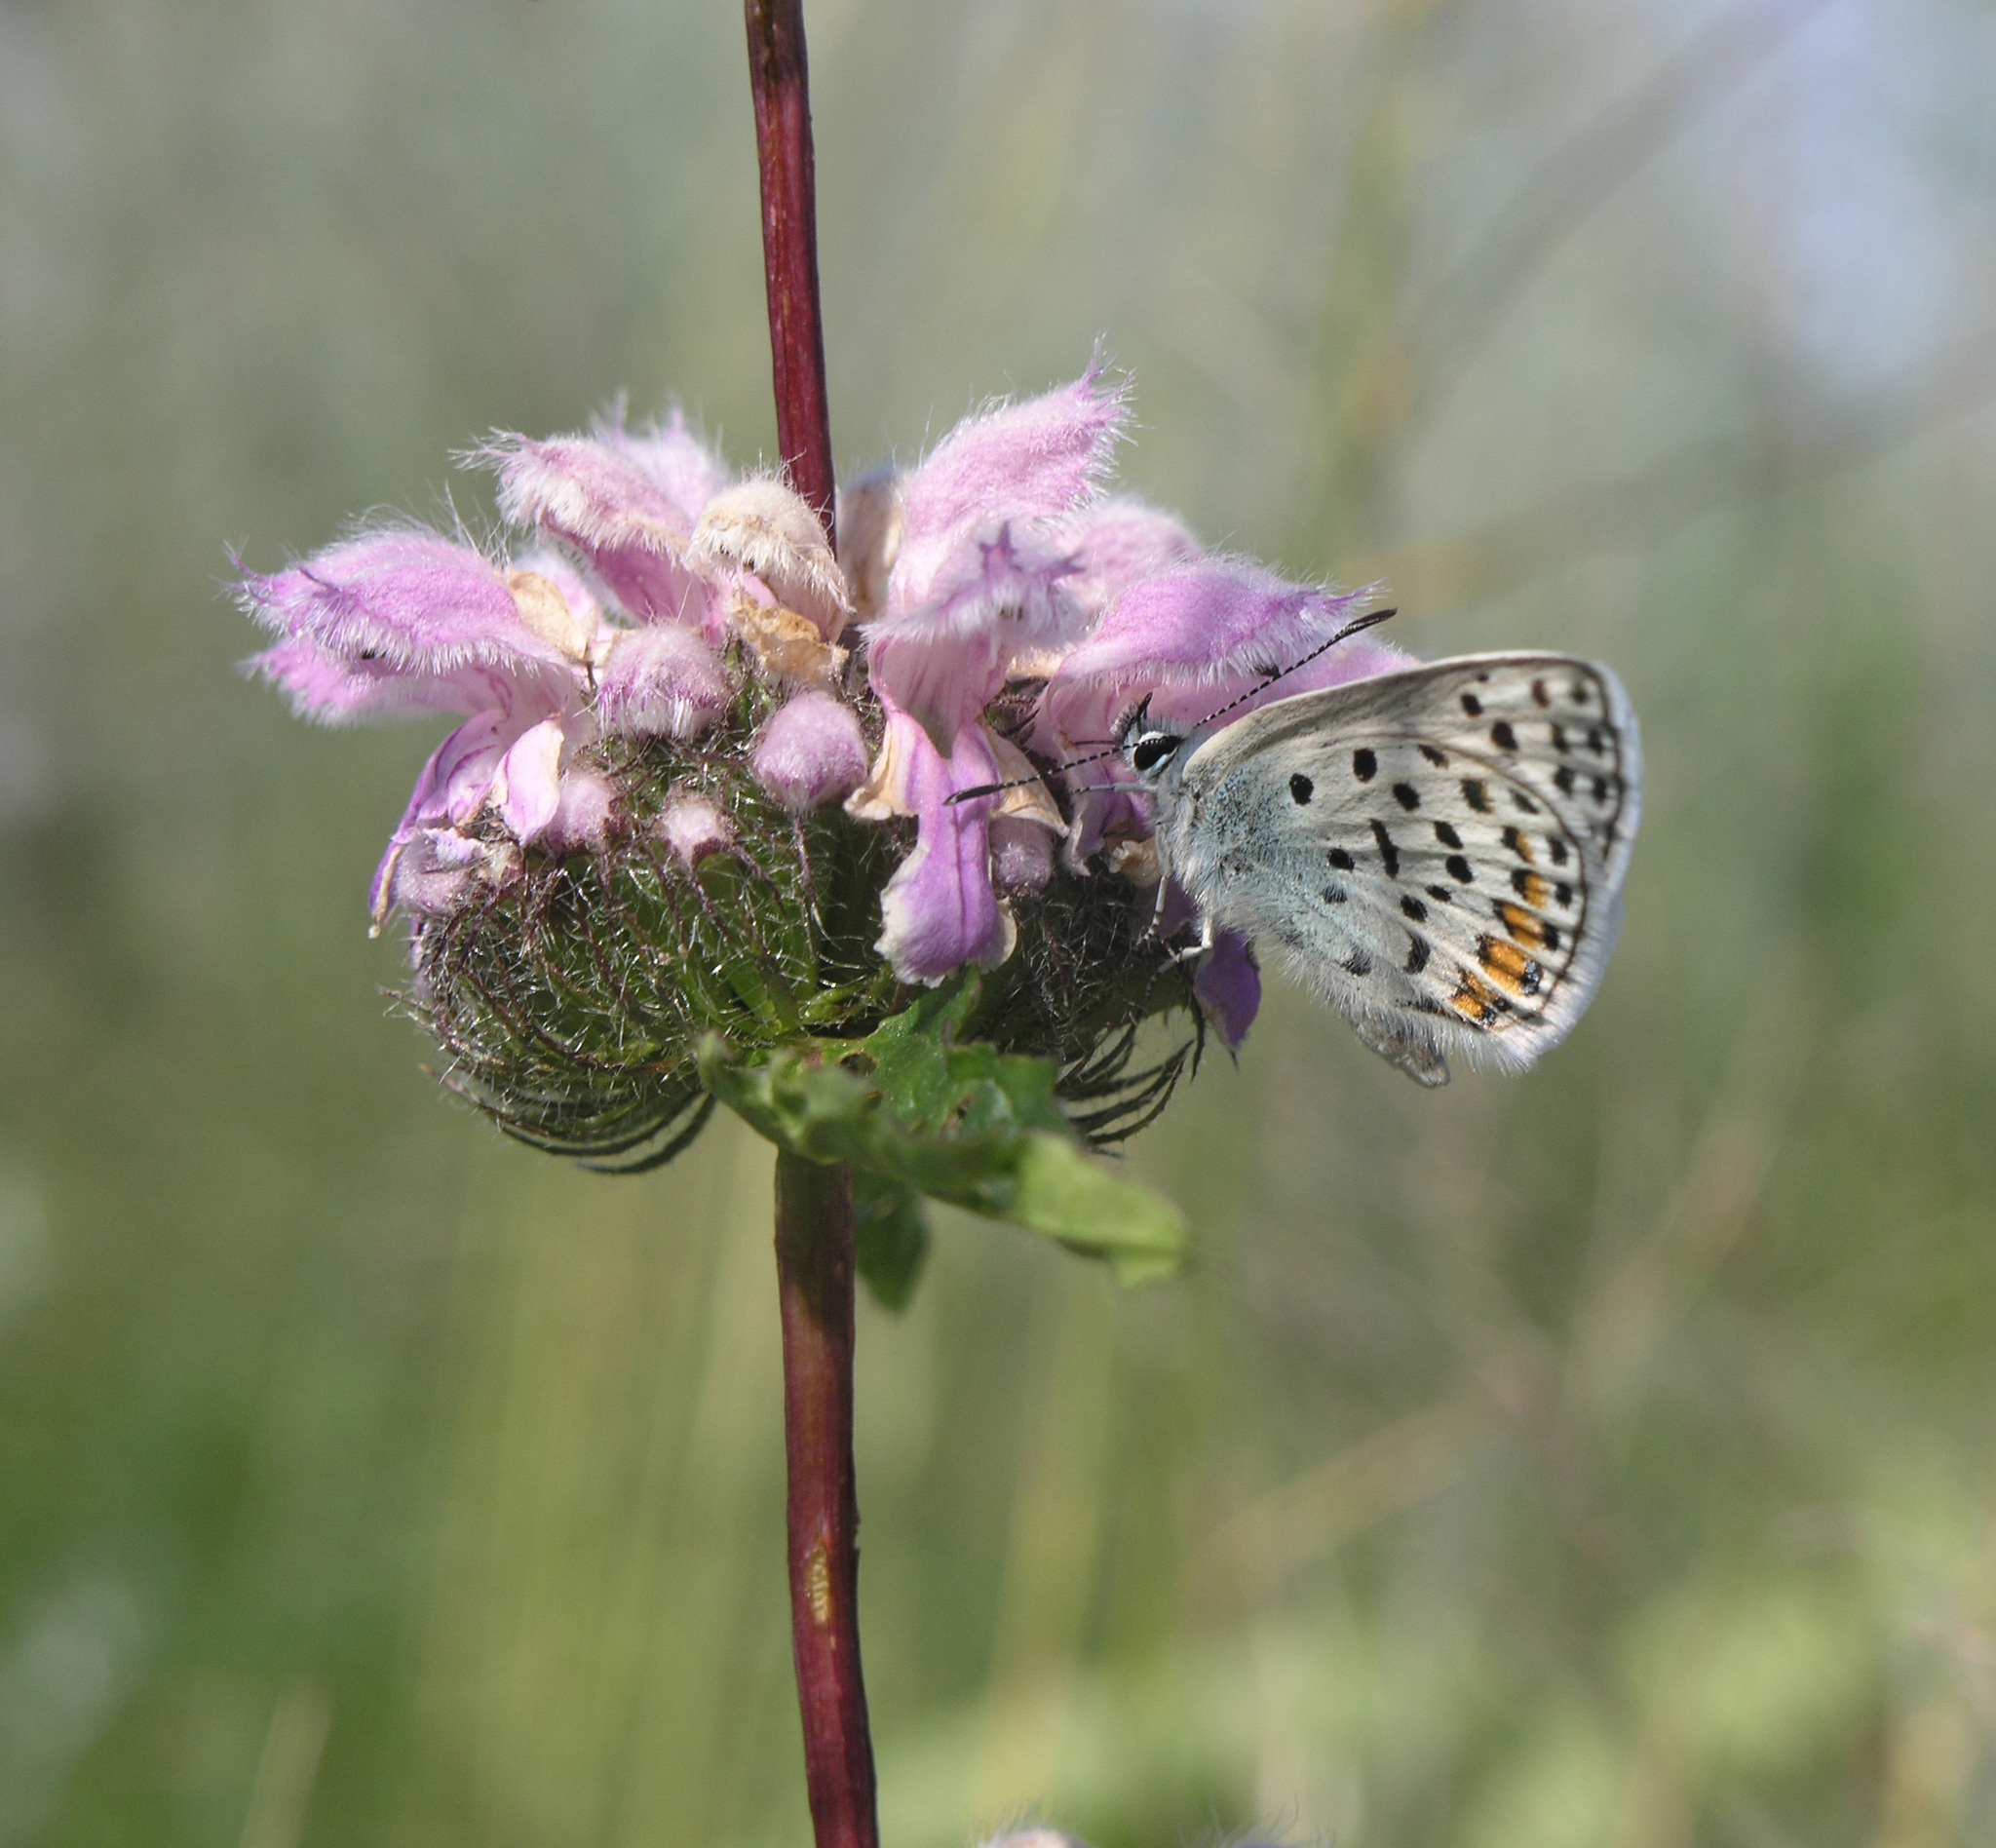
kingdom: Animalia
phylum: Arthropoda
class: Insecta
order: Lepidoptera
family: Lycaenidae
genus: Glabroculus
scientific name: Glabroculus cyane
